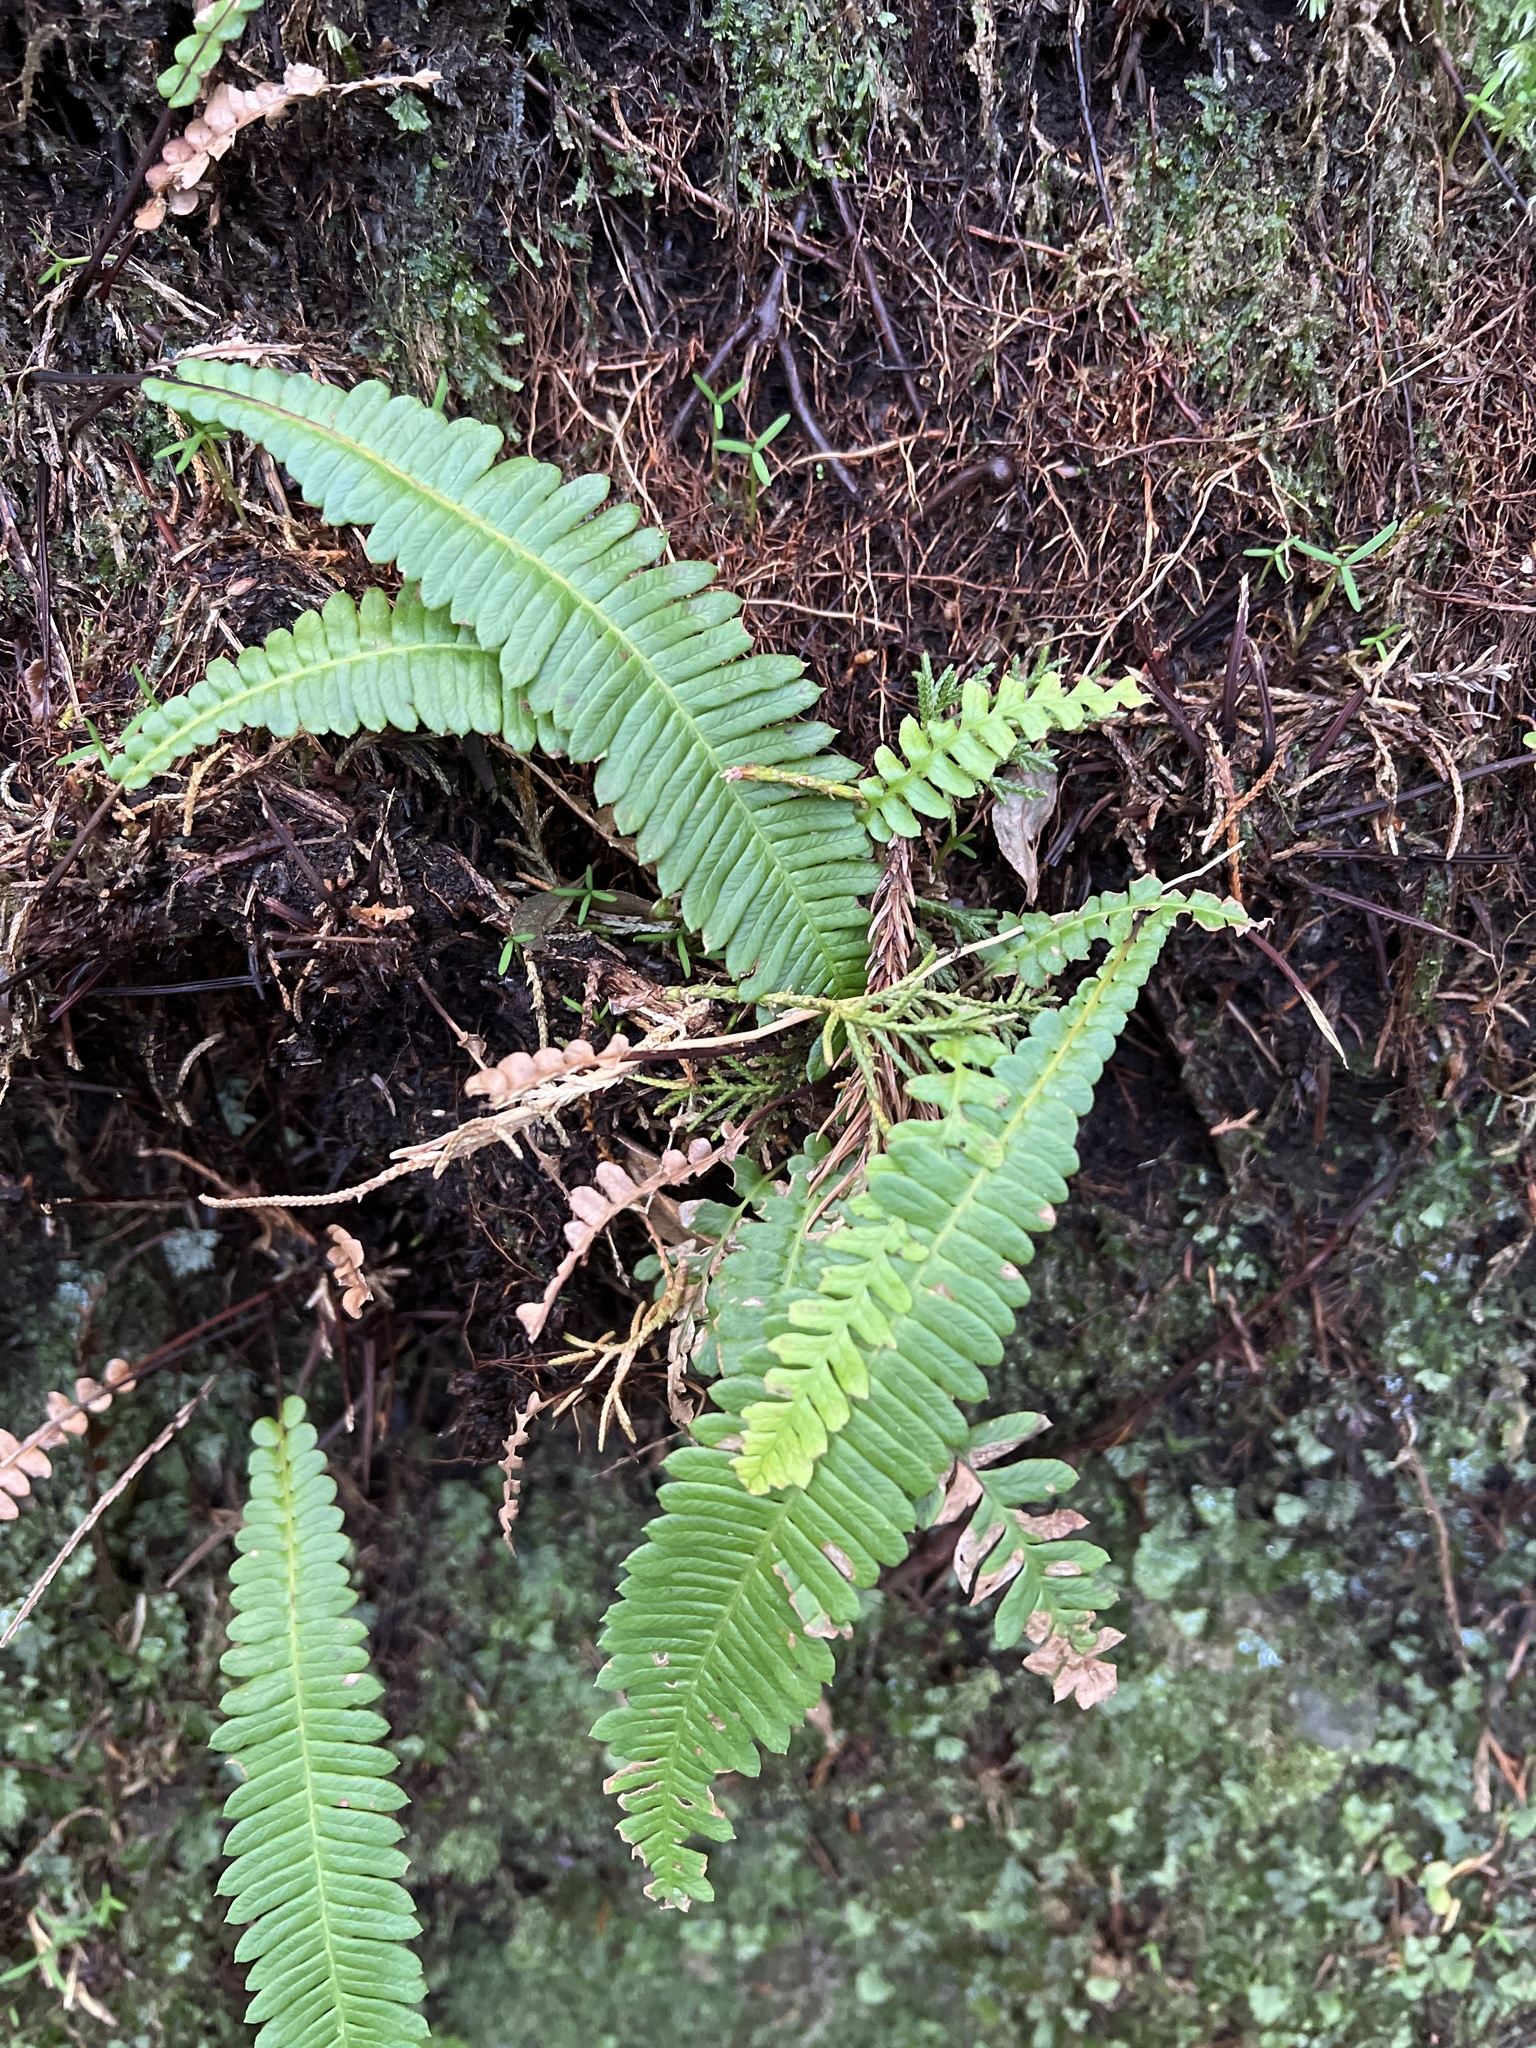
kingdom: Plantae
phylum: Tracheophyta
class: Polypodiopsida
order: Polypodiales
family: Blechnaceae
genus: Struthiopteris
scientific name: Struthiopteris spicant
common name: Deer fern
